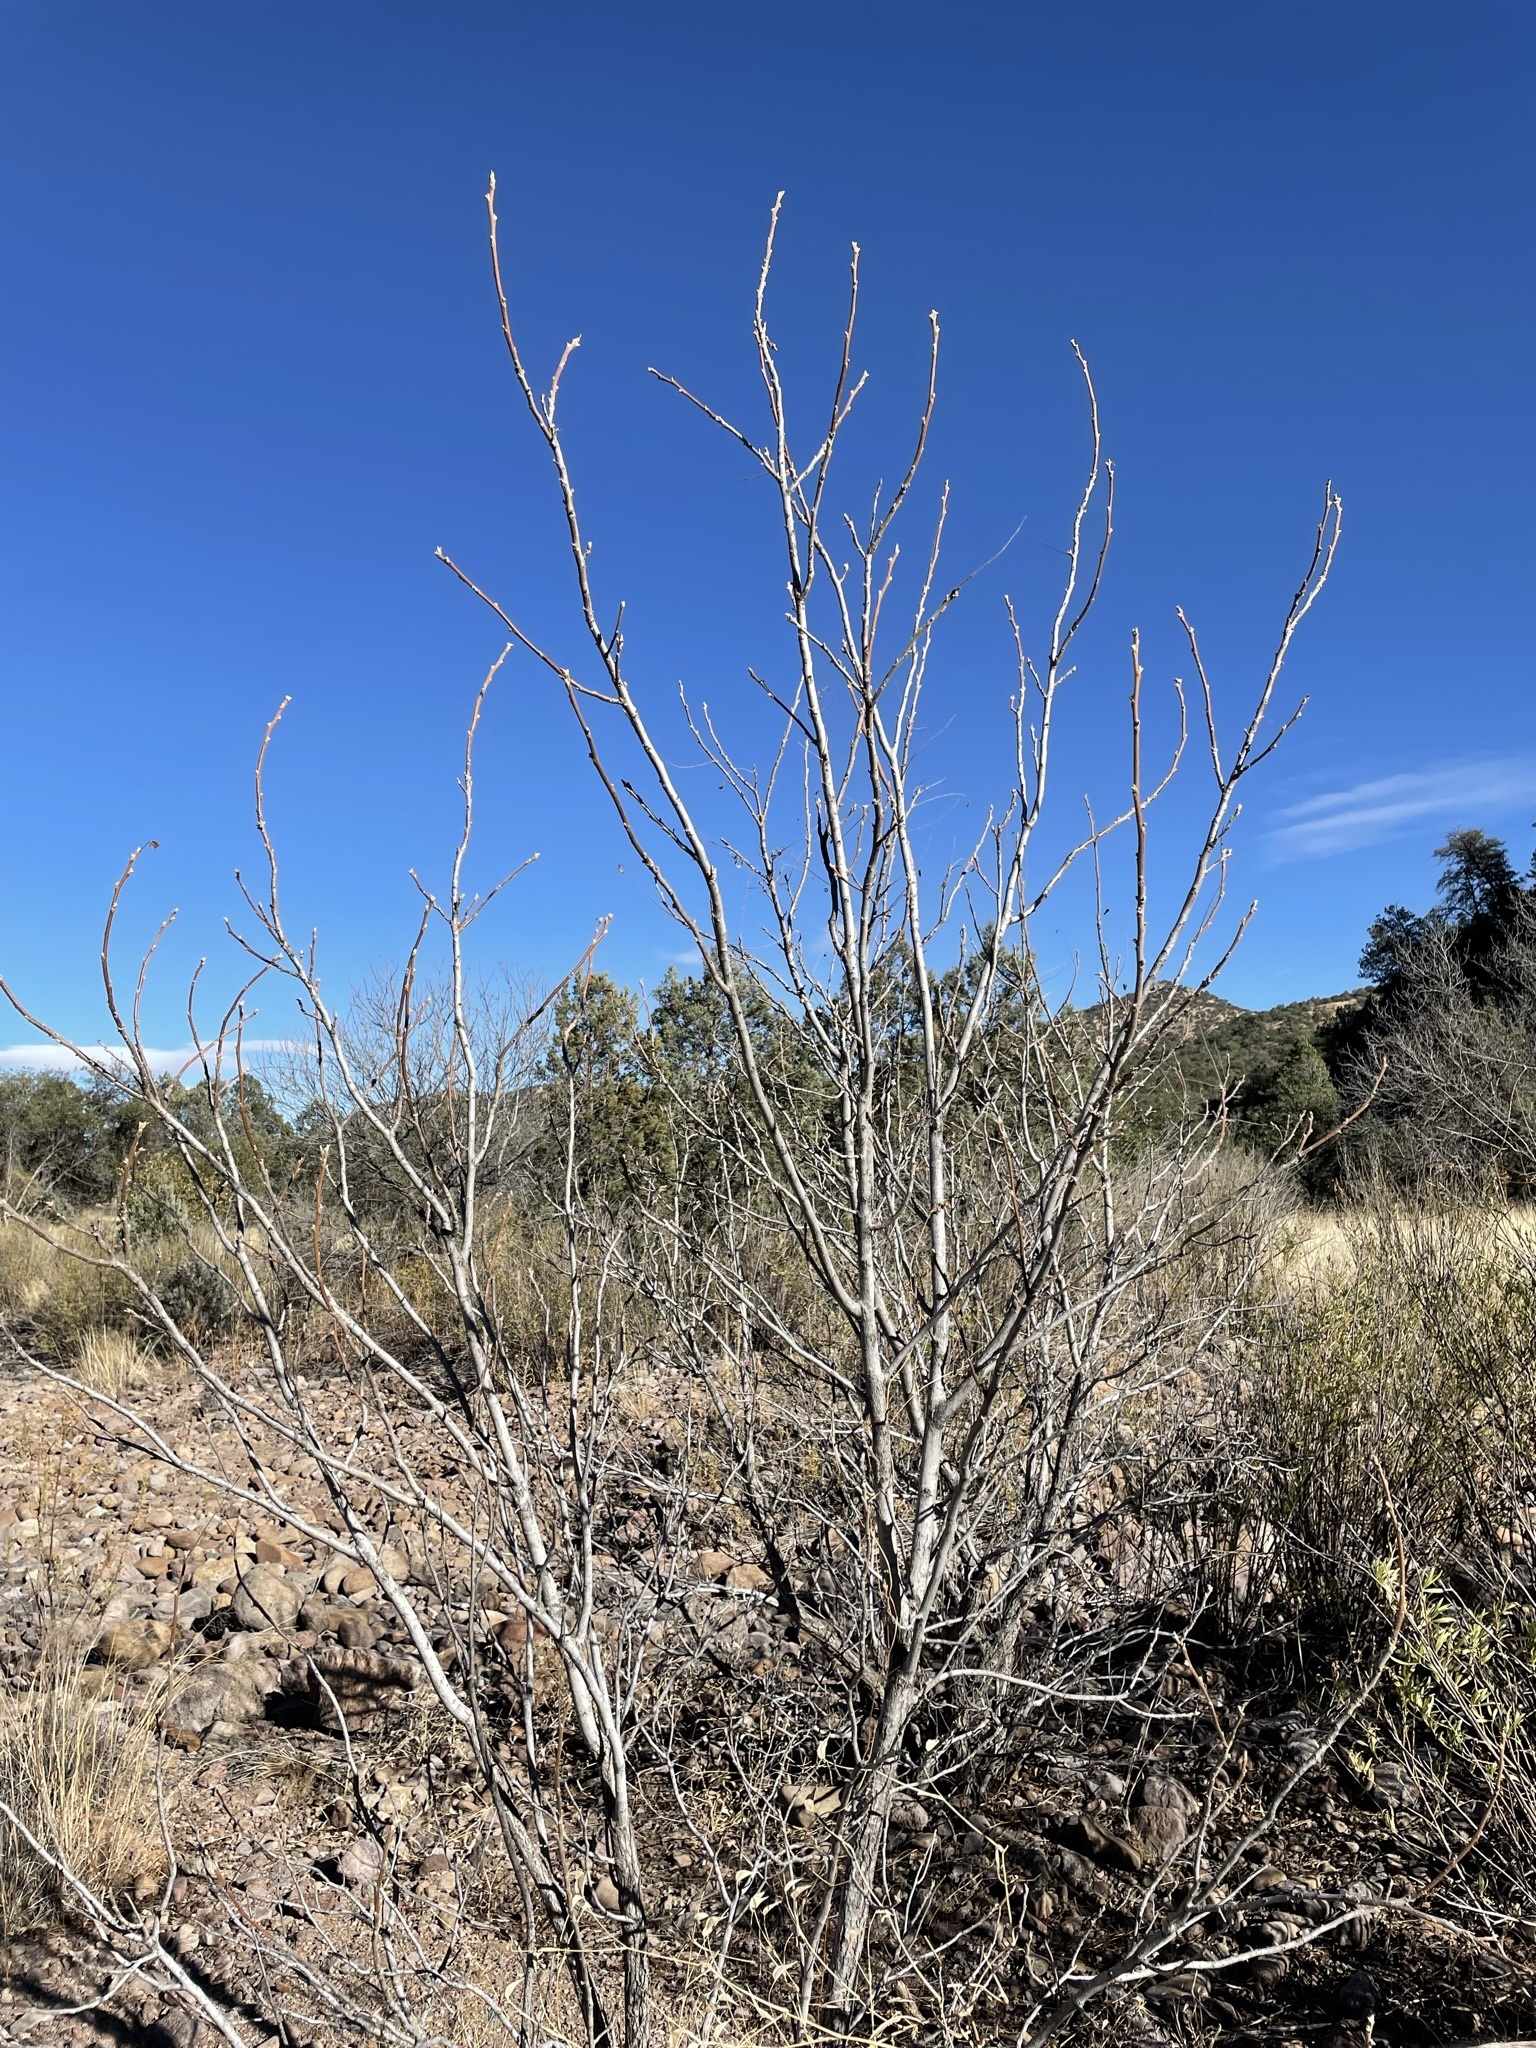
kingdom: Plantae
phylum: Tracheophyta
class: Magnoliopsida
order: Fagales
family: Juglandaceae
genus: Juglans
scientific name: Juglans microcarpa
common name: Texas walnut
